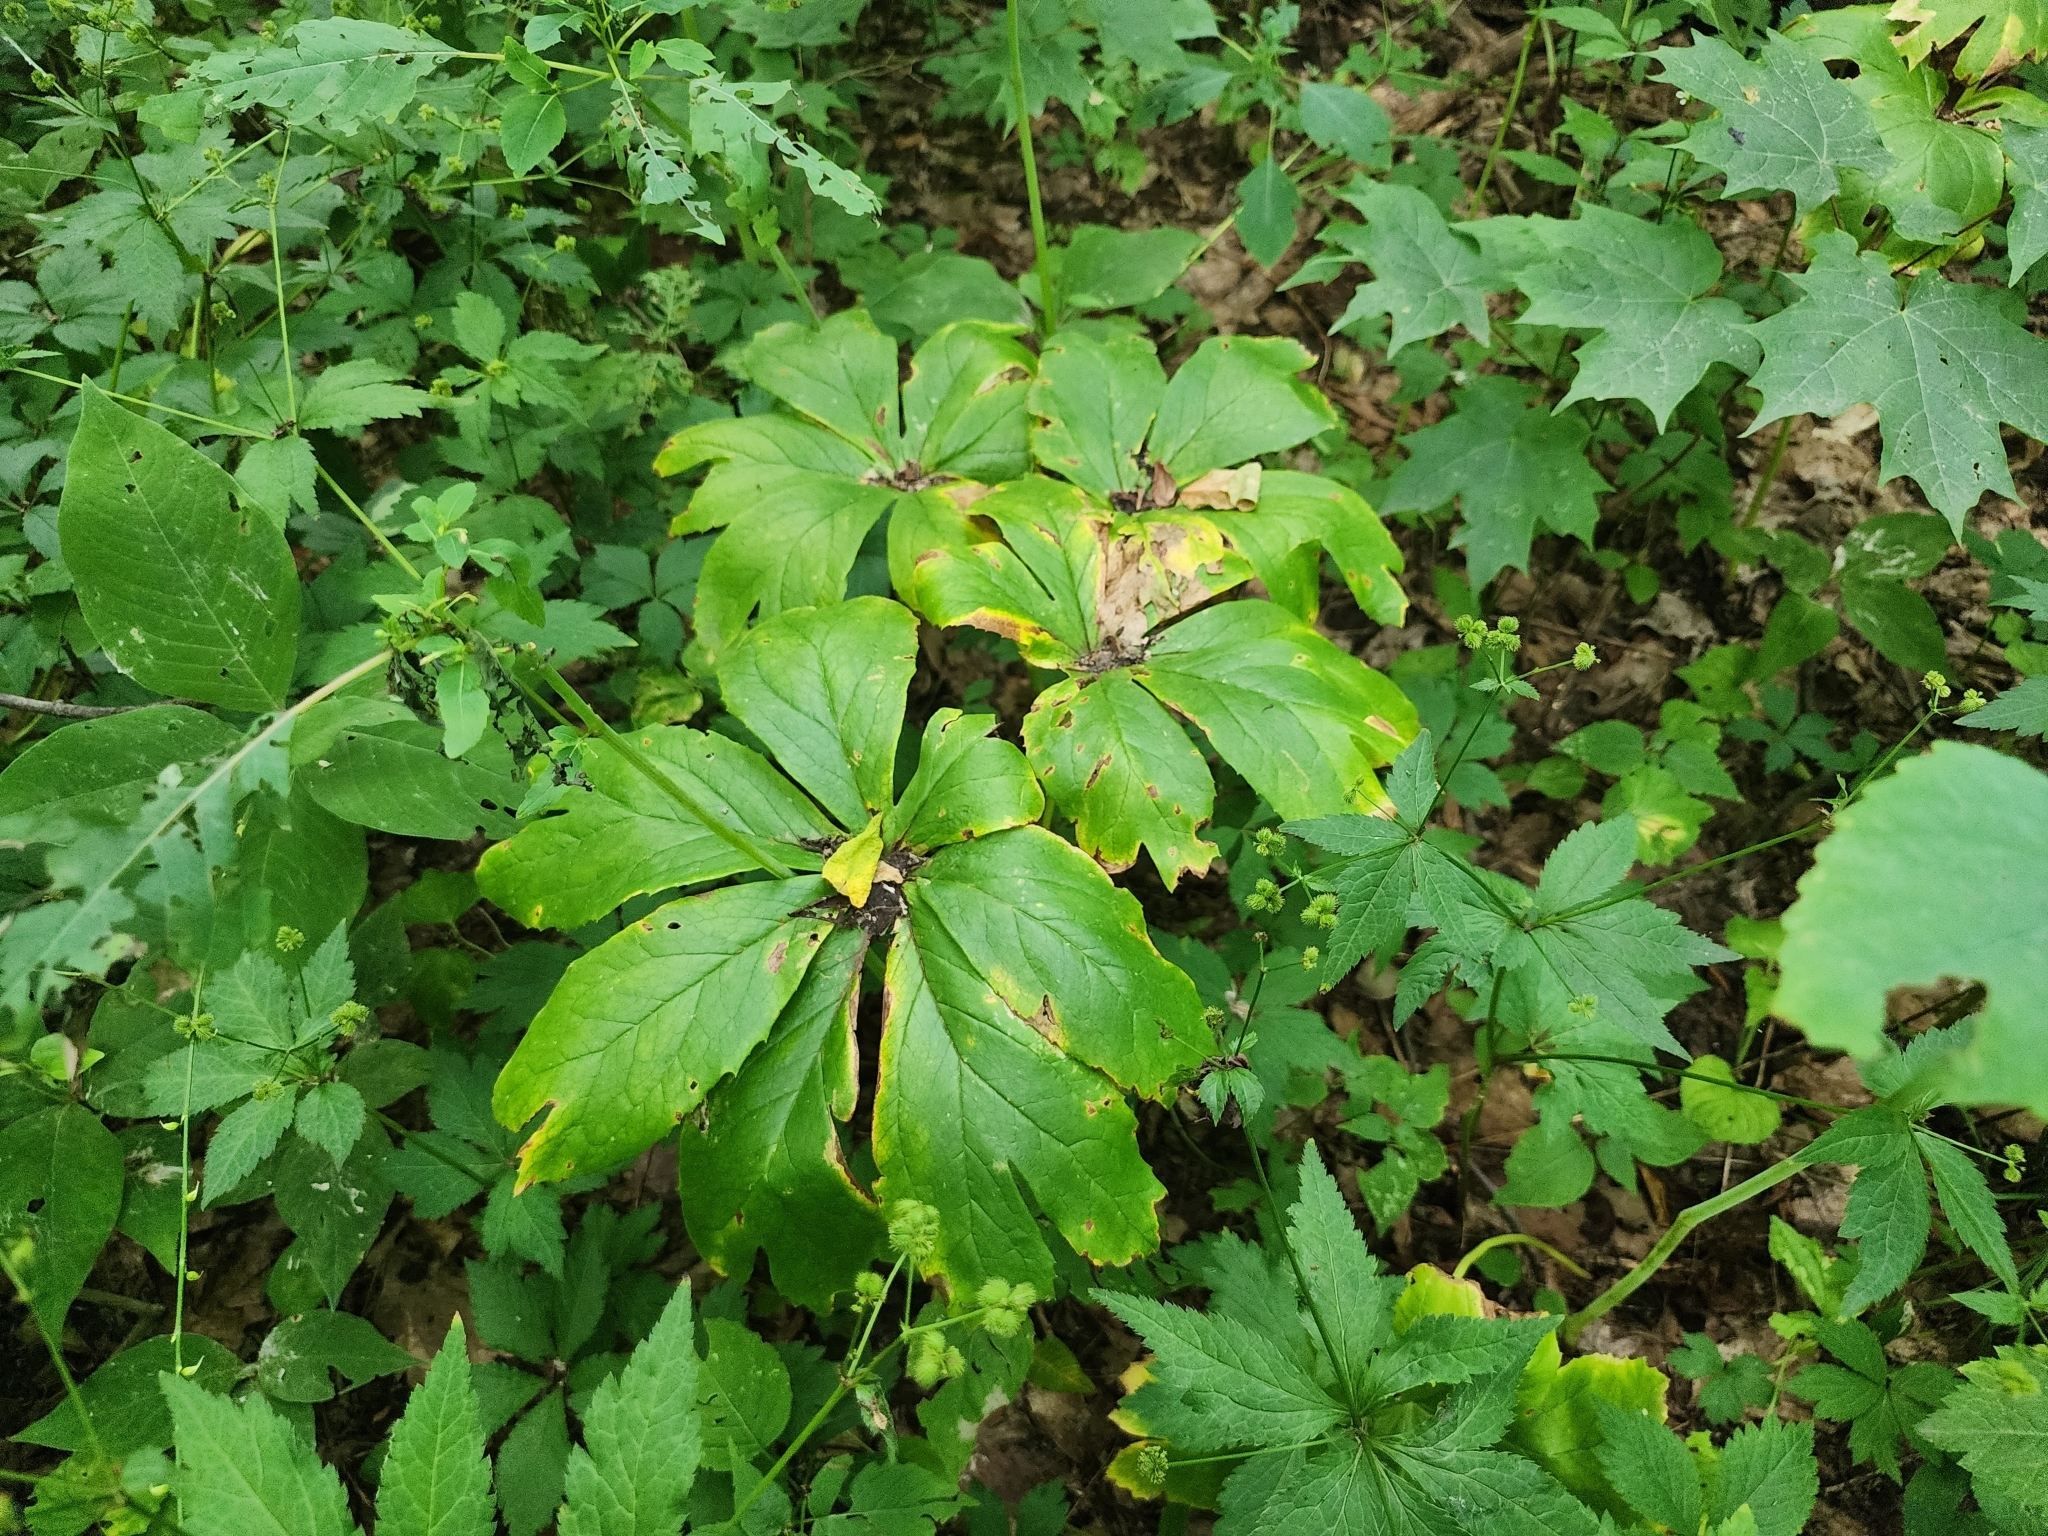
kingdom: Plantae
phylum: Tracheophyta
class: Magnoliopsida
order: Ranunculales
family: Berberidaceae
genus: Podophyllum
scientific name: Podophyllum peltatum
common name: Wild mandrake
